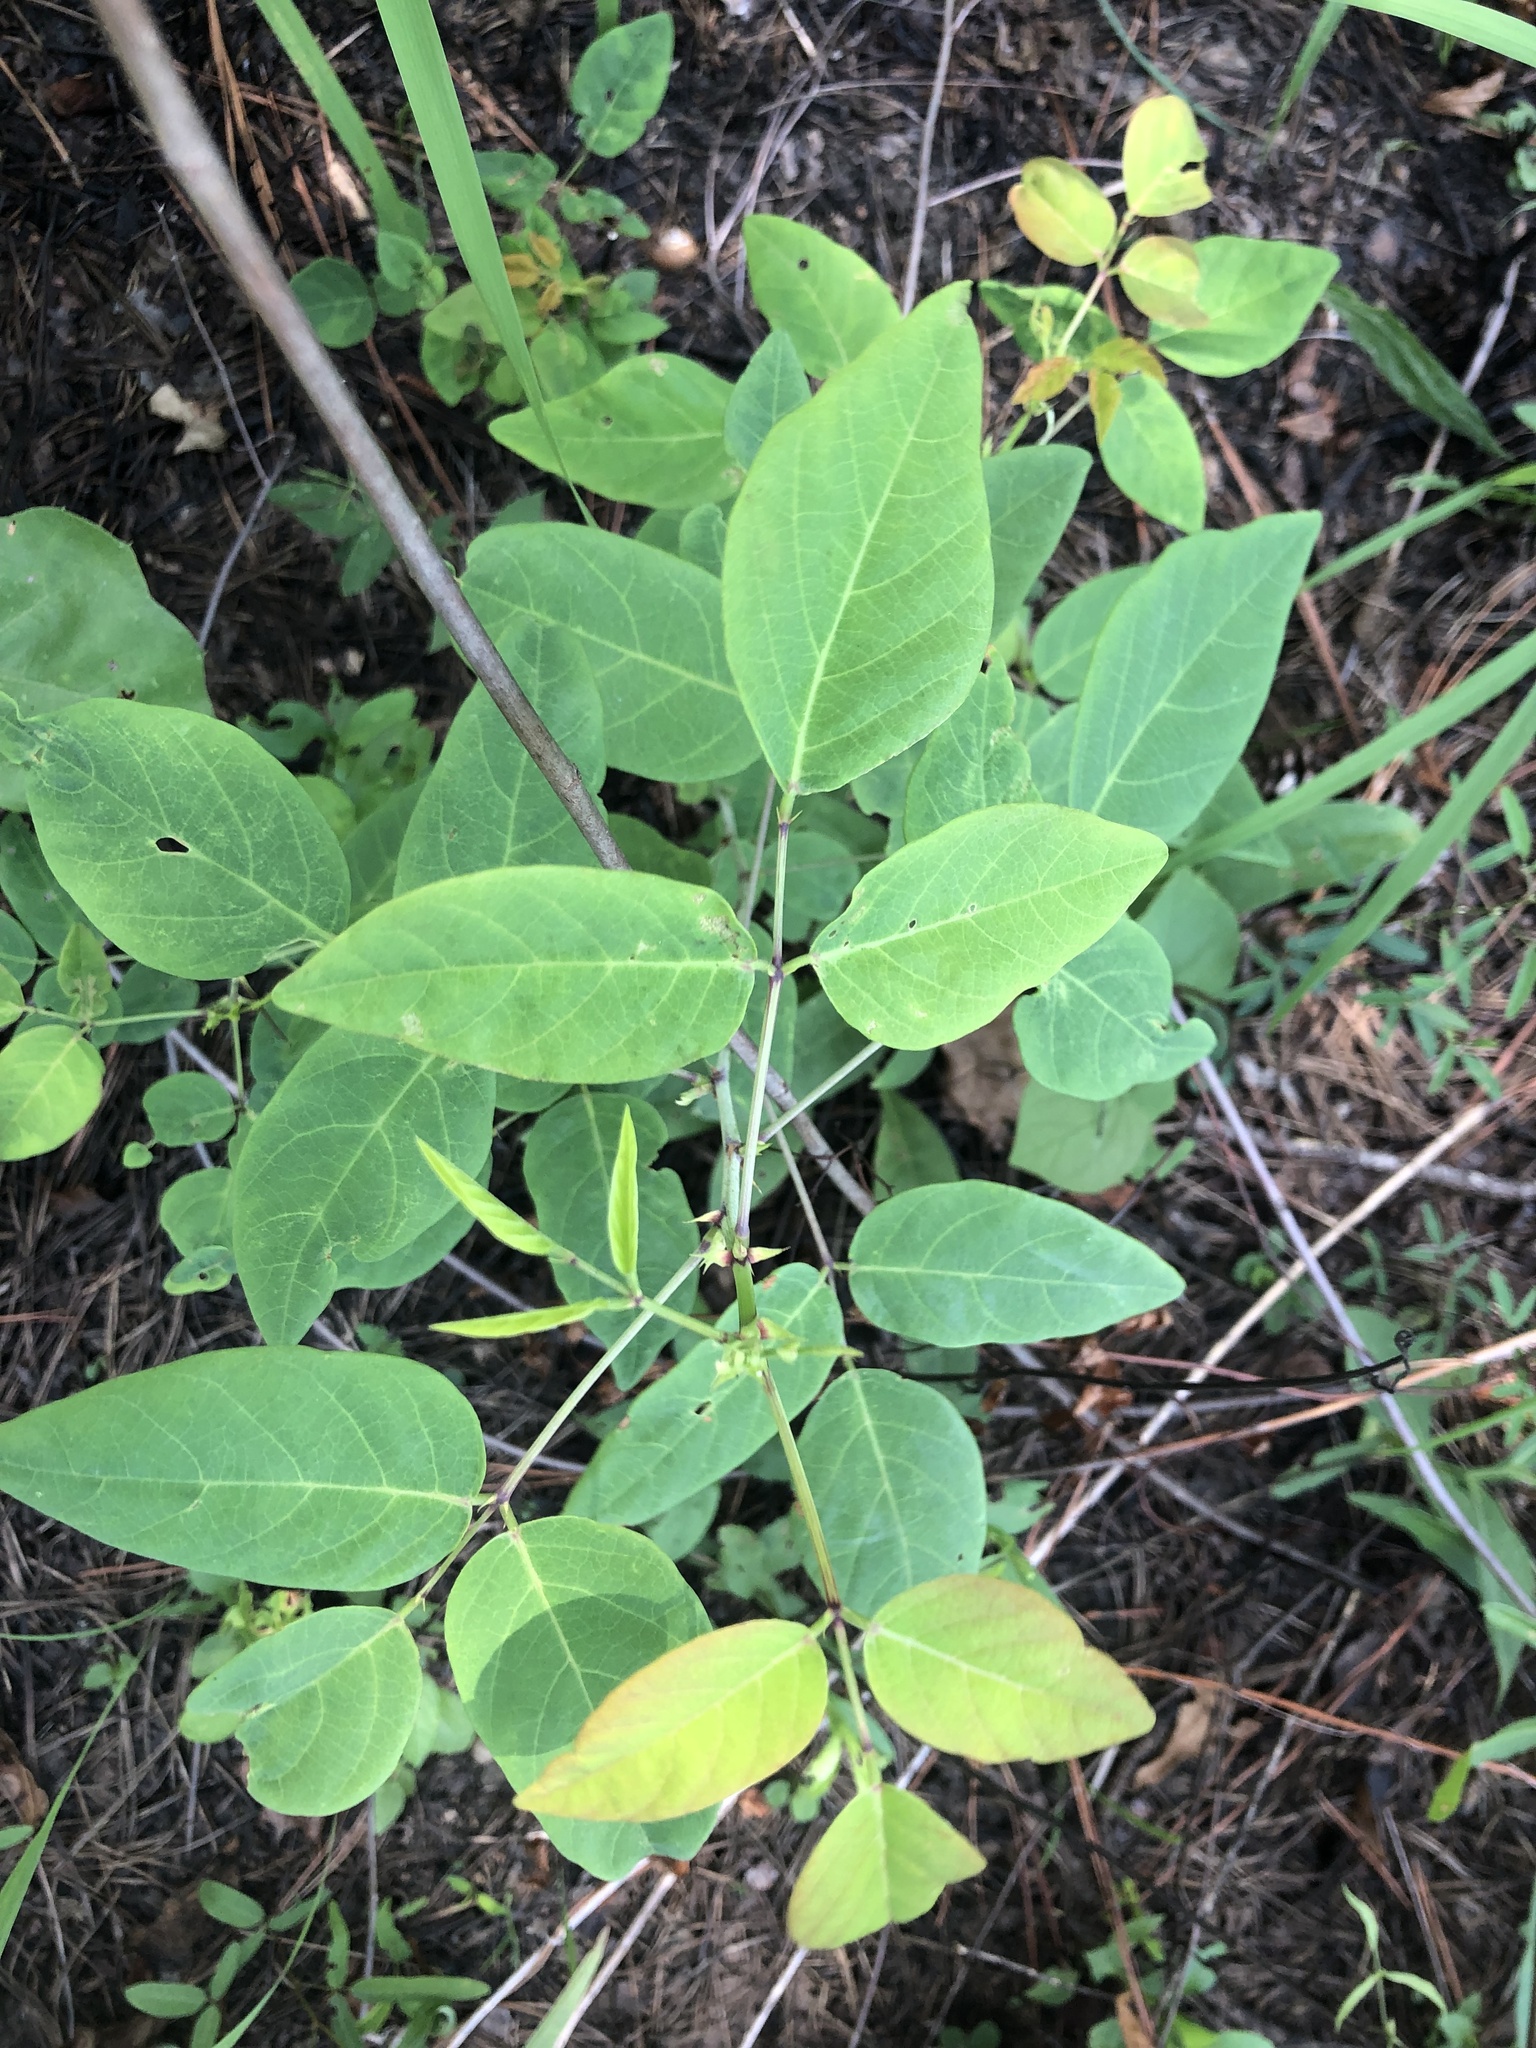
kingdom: Plantae
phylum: Tracheophyta
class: Magnoliopsida
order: Fabales
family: Fabaceae
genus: Desmodium
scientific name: Desmodium laevigatum
